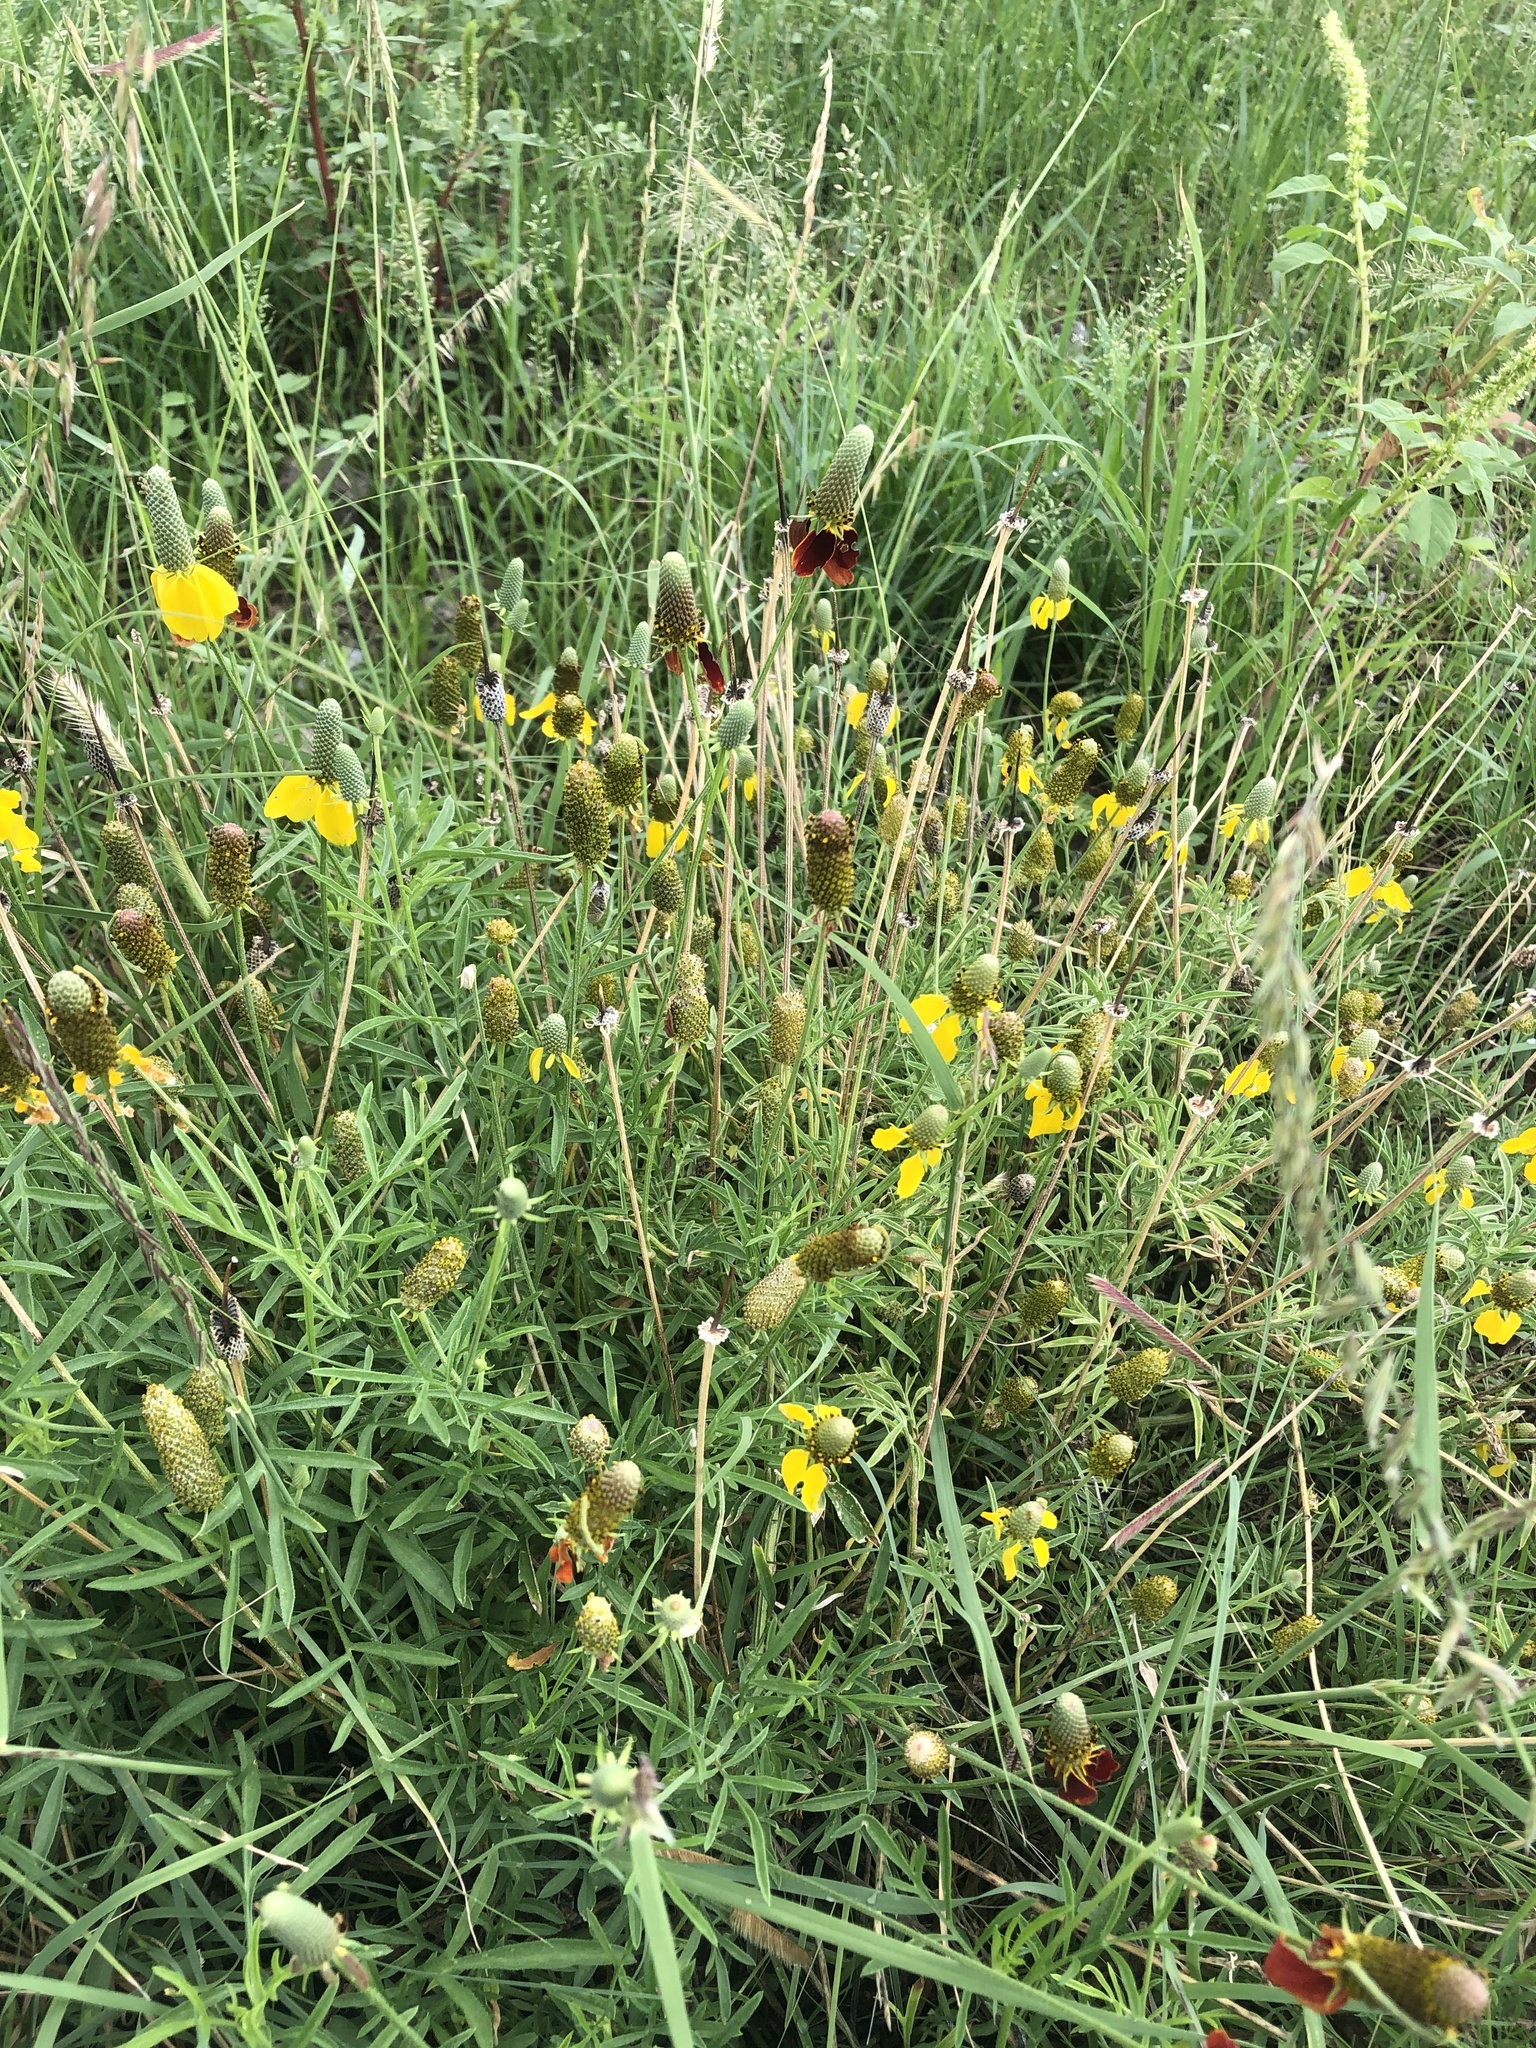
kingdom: Plantae
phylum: Tracheophyta
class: Magnoliopsida
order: Asterales
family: Asteraceae
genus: Ratibida
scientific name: Ratibida columnifera
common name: Prairie coneflower
